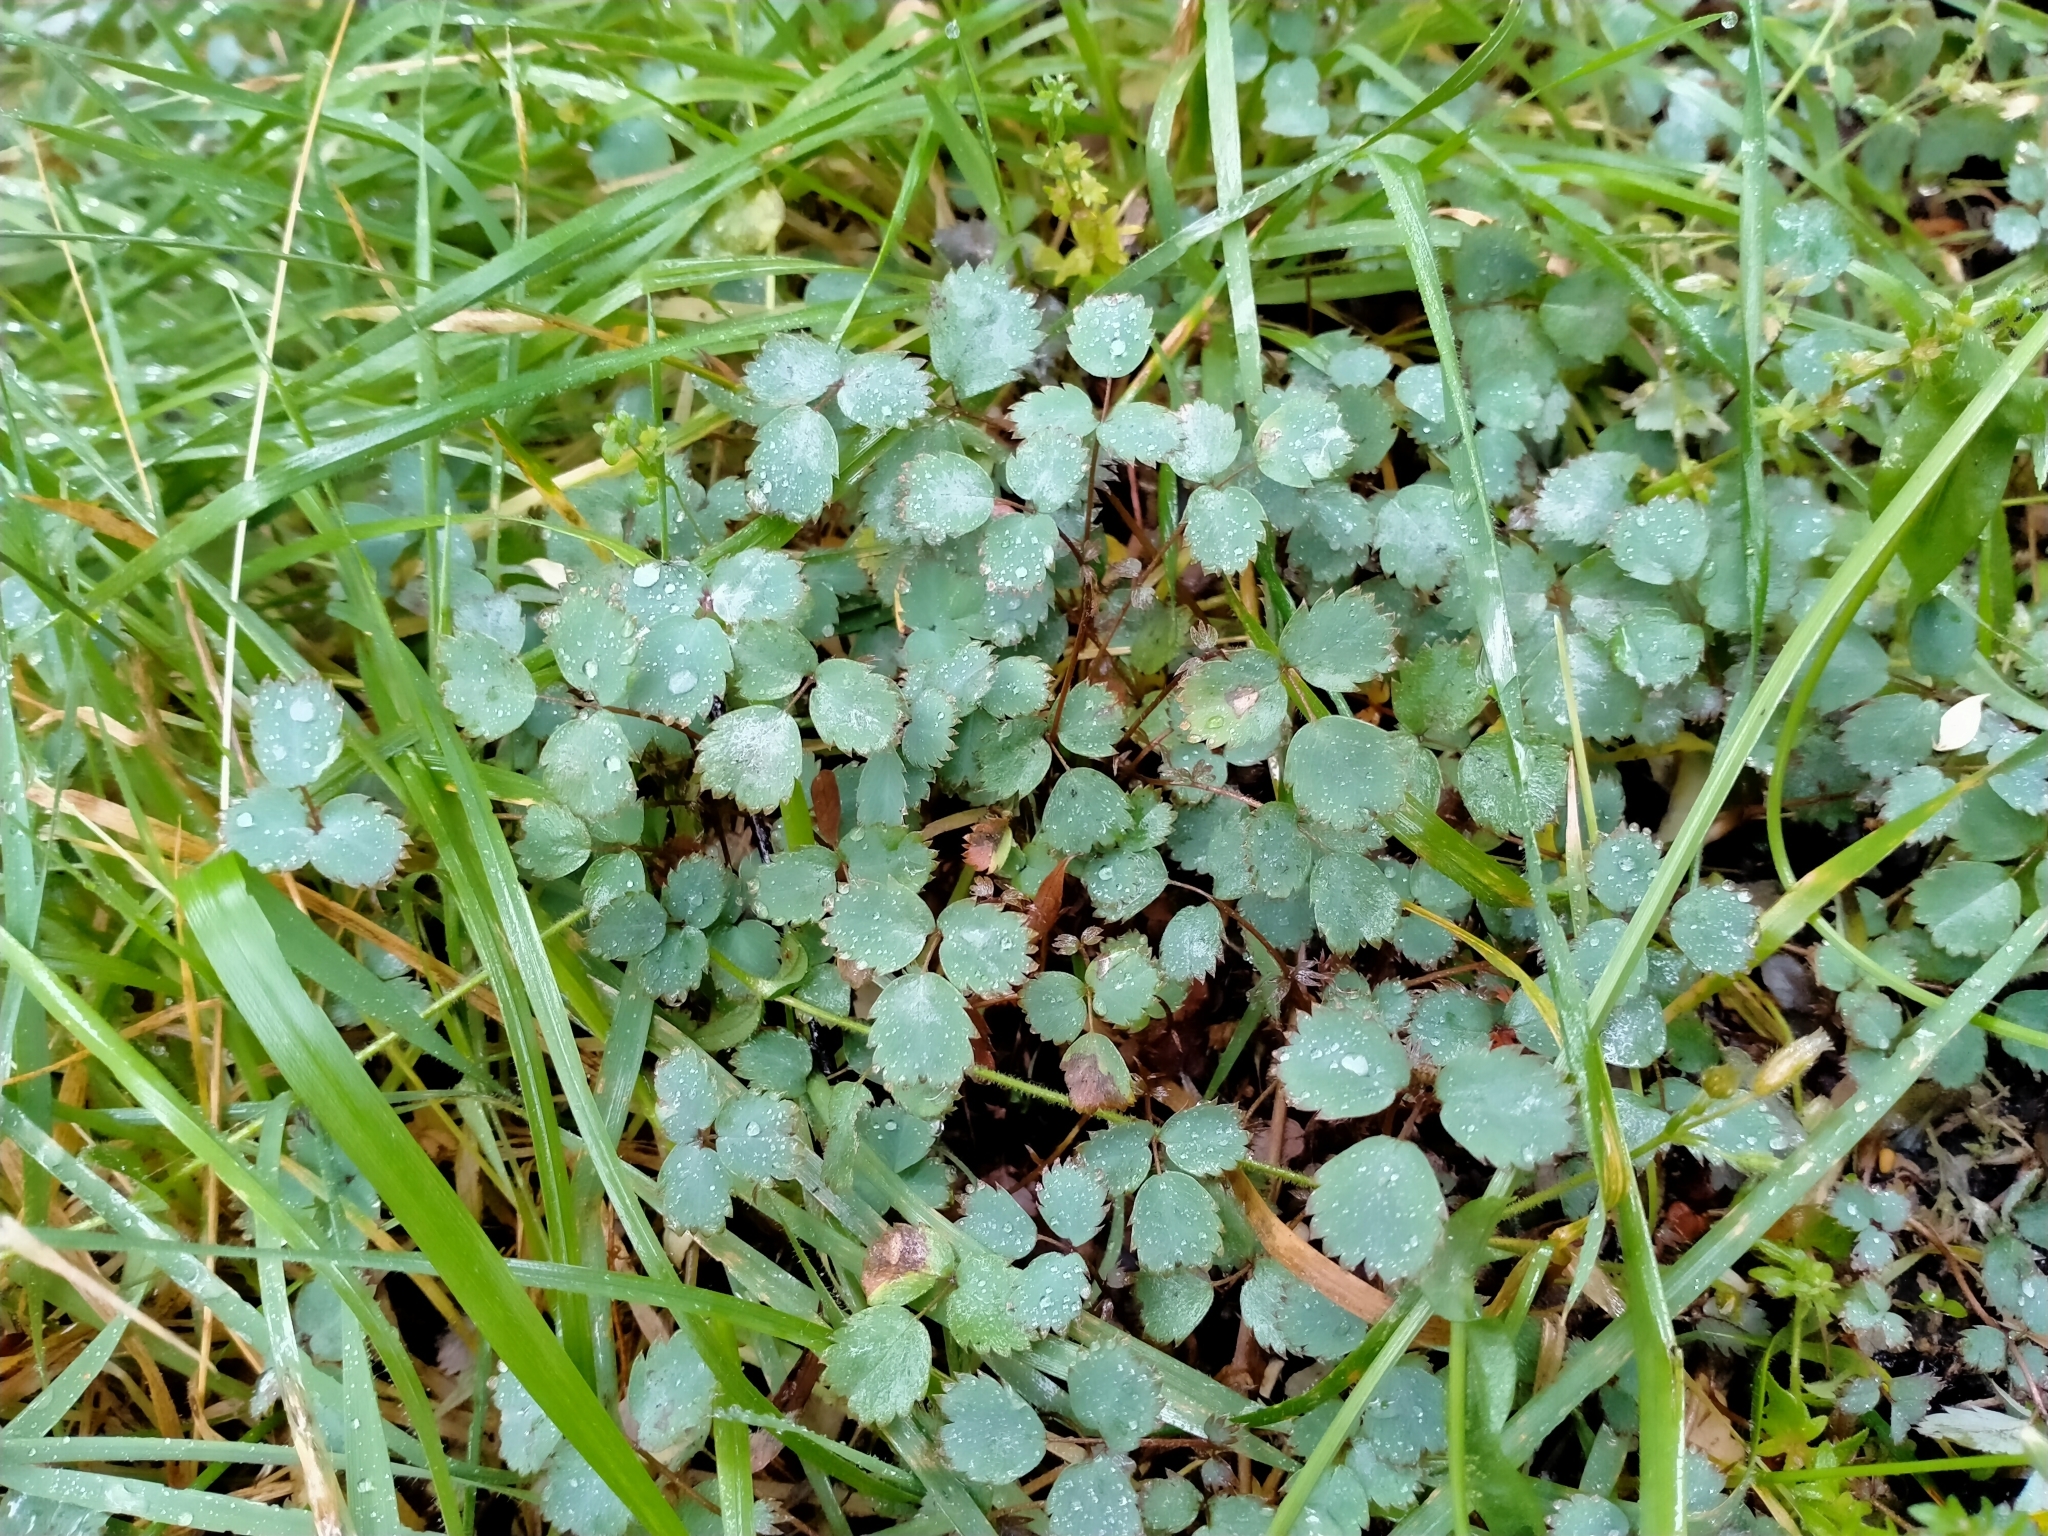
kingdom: Plantae
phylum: Tracheophyta
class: Magnoliopsida
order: Rosales
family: Rosaceae
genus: Acaena
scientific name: Acaena dumicola
